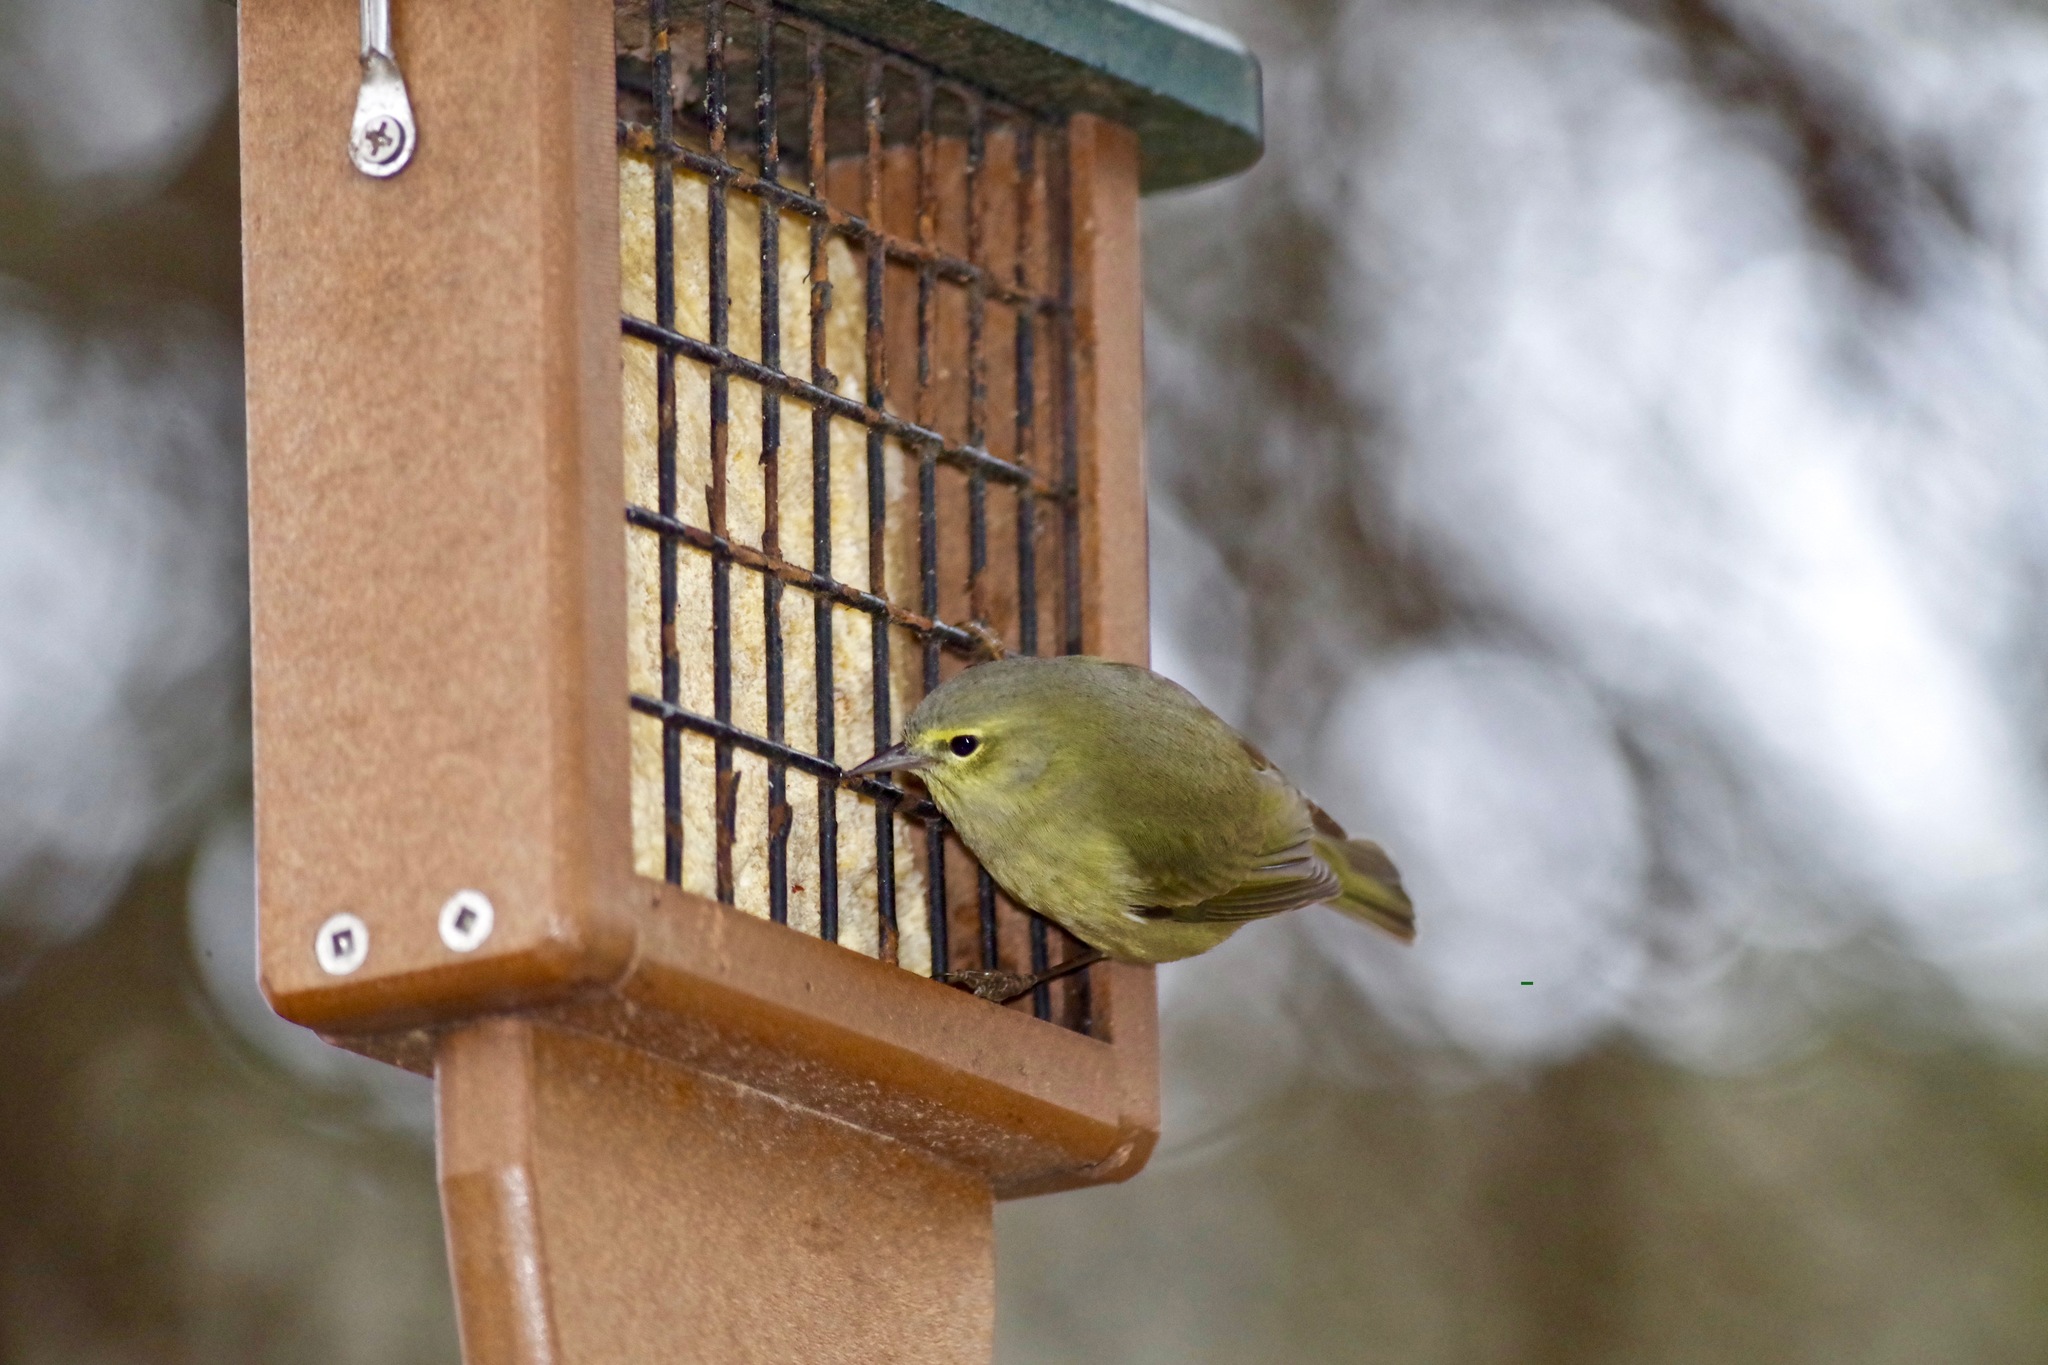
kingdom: Animalia
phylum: Chordata
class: Aves
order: Passeriformes
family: Parulidae
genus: Leiothlypis
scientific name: Leiothlypis celata
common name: Orange-crowned warbler
